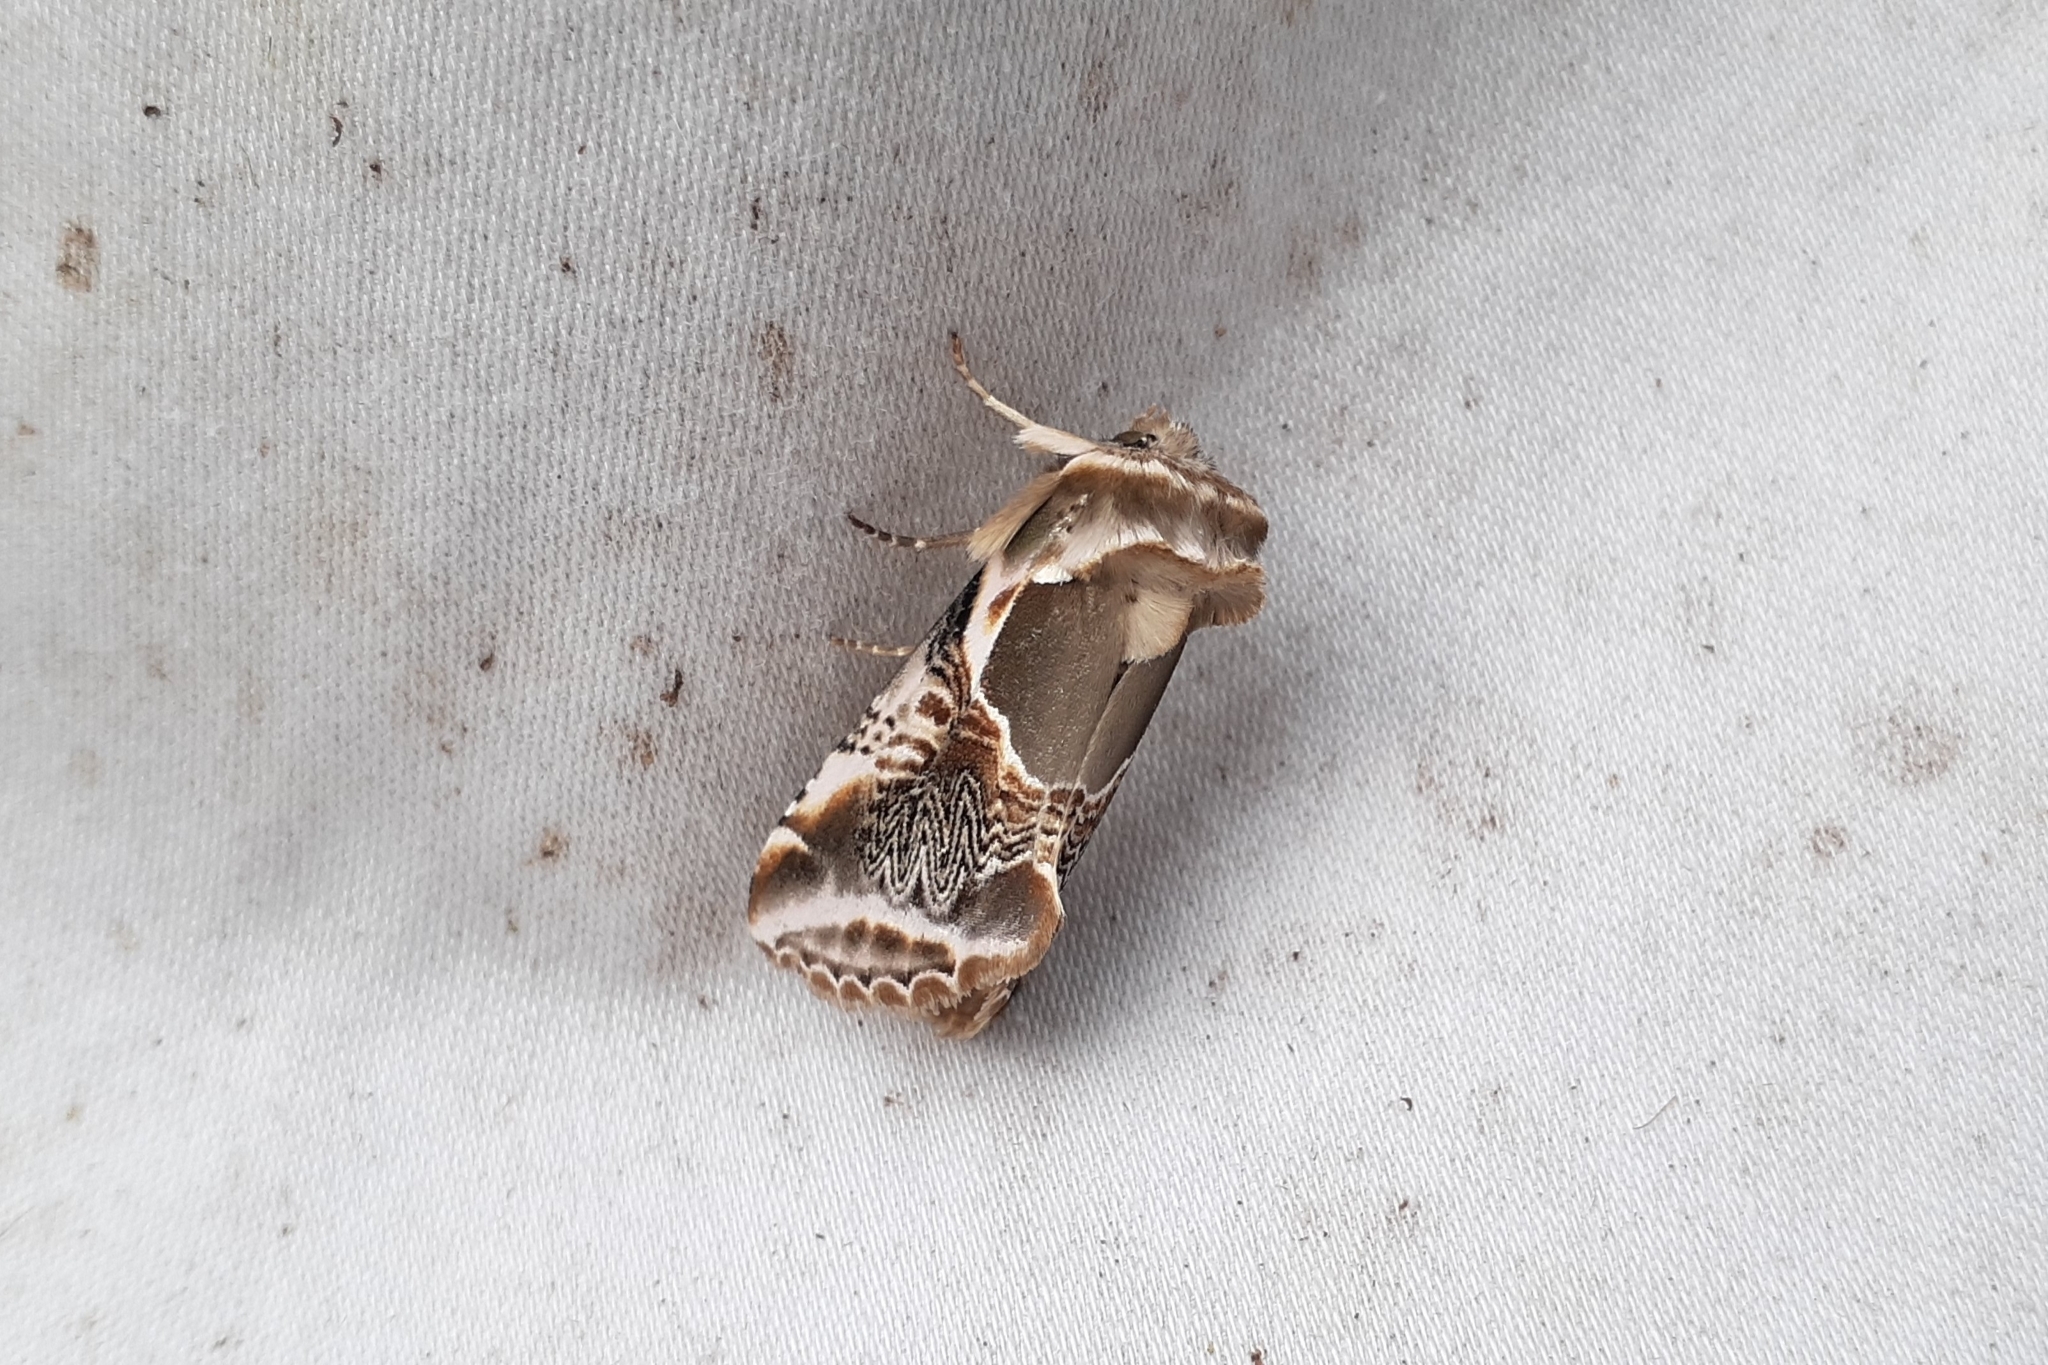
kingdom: Animalia
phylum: Arthropoda
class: Insecta
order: Lepidoptera
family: Drepanidae
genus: Habrosyne
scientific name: Habrosyne scripta
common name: Lettered habrosyne moth
